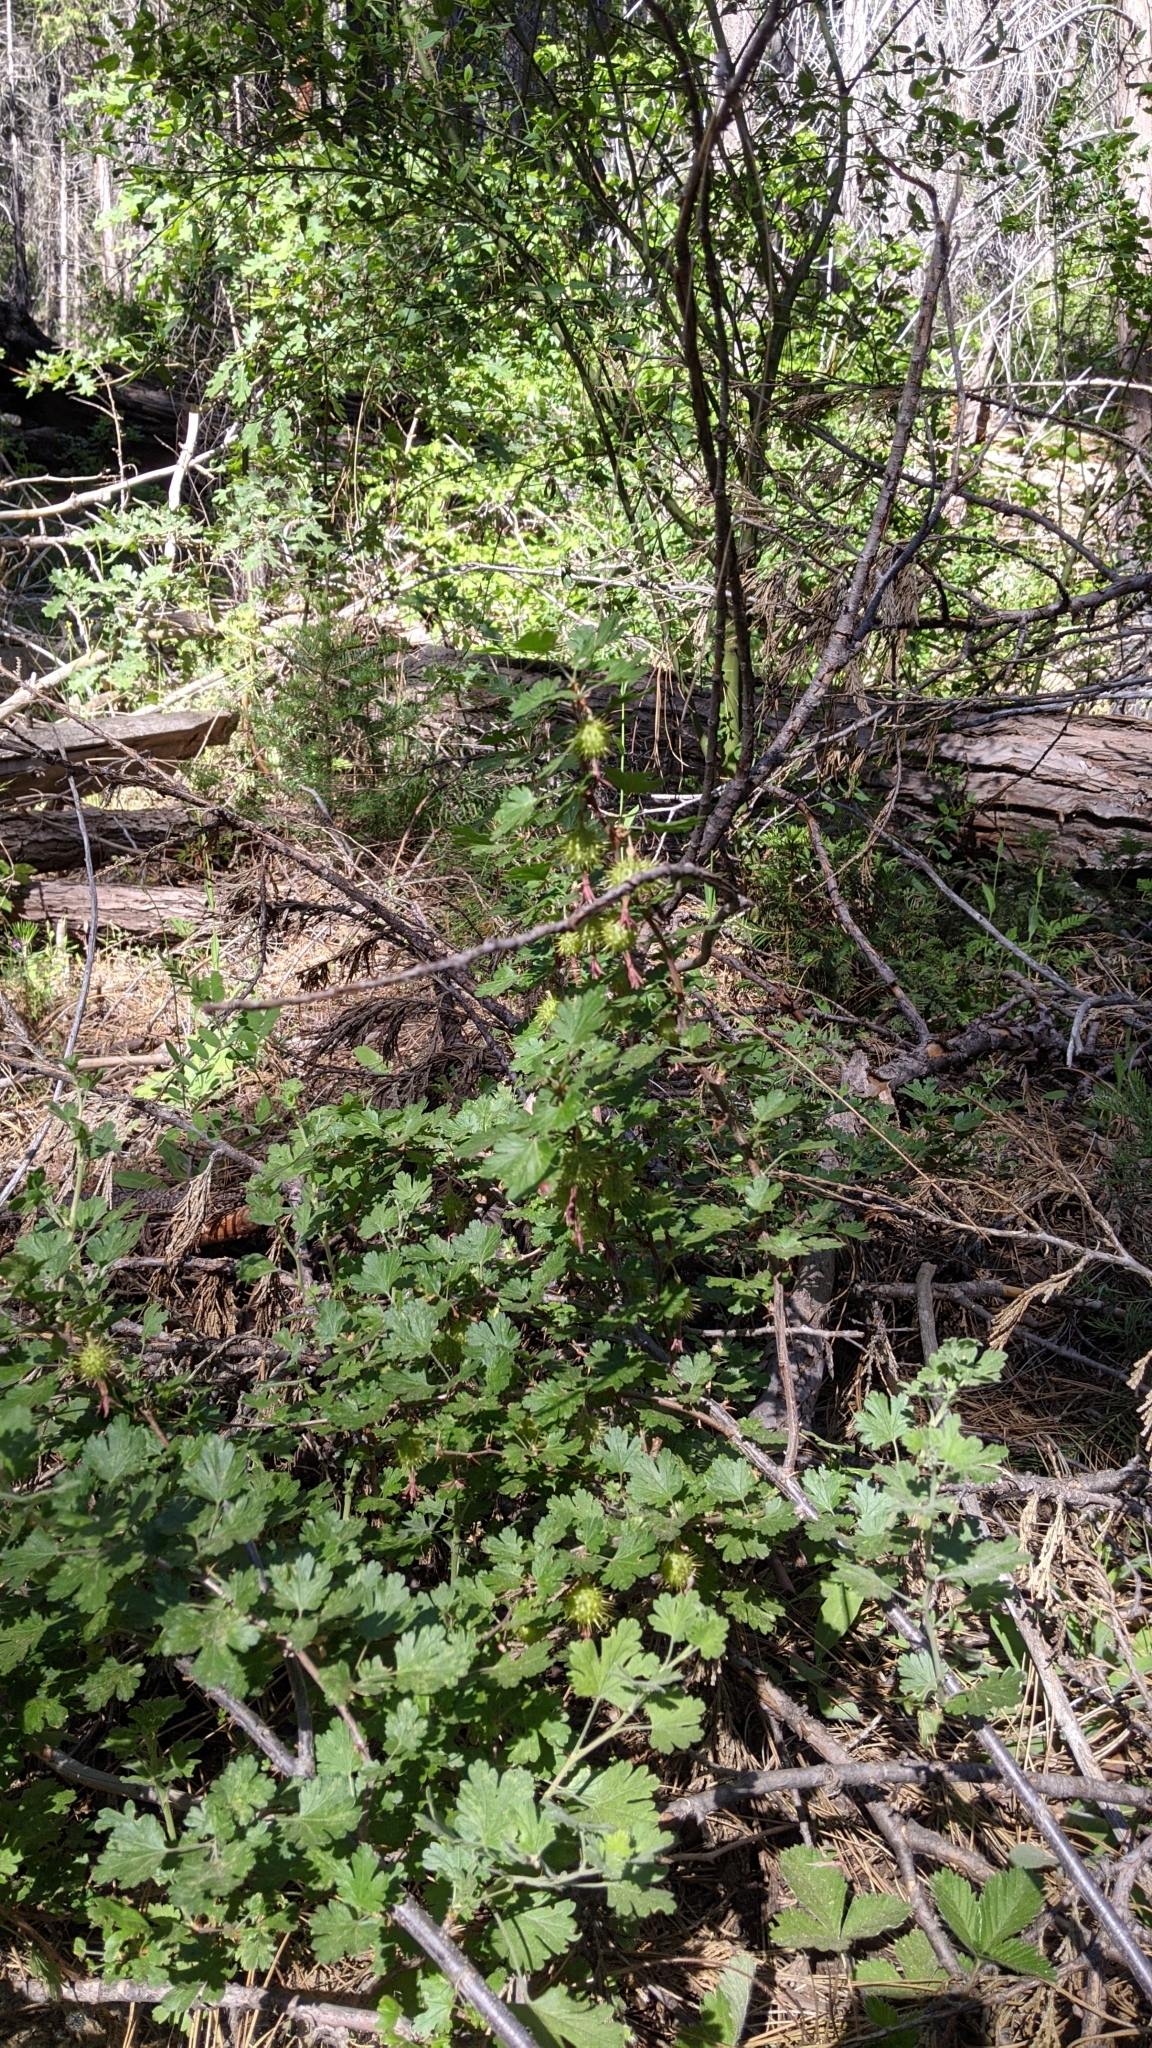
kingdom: Plantae
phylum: Tracheophyta
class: Magnoliopsida
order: Saxifragales
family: Grossulariaceae
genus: Ribes
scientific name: Ribes roezlii
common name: Sierra gooseberry
